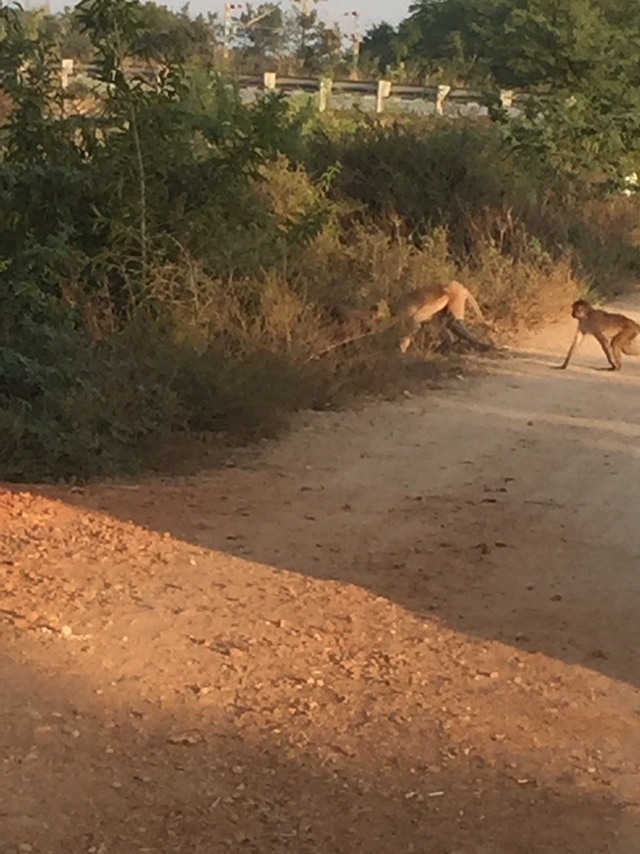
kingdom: Animalia
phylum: Chordata
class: Mammalia
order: Primates
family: Cercopithecidae
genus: Macaca
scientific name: Macaca mulatta
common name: Rhesus monkey
